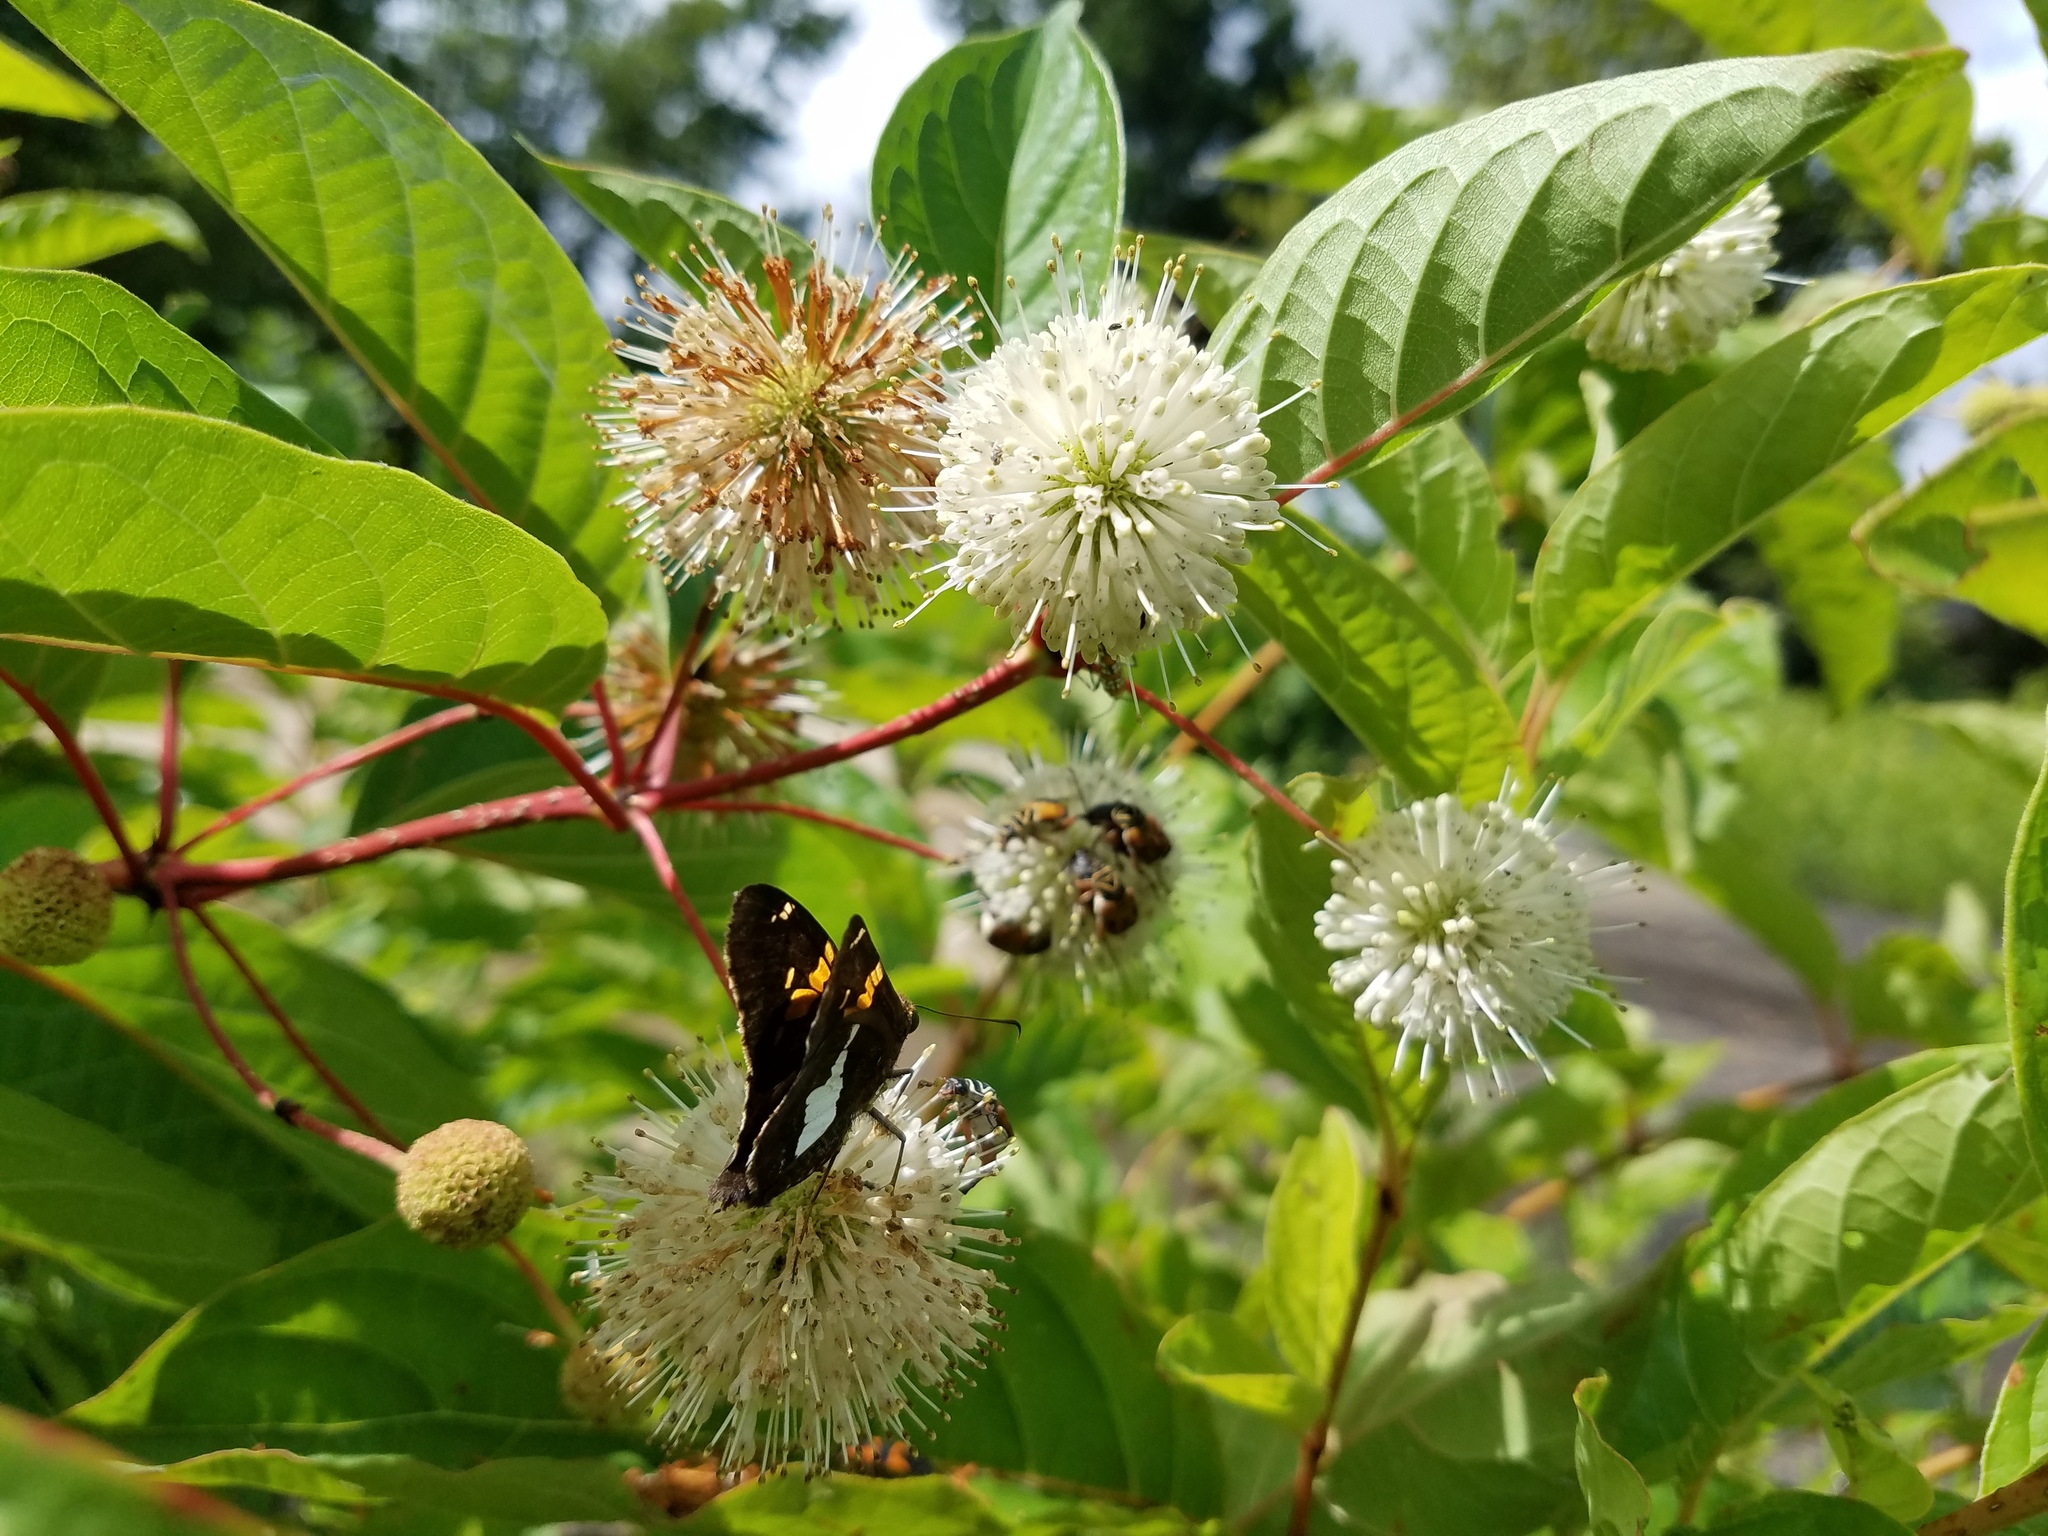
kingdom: Animalia
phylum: Arthropoda
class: Insecta
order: Lepidoptera
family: Hesperiidae
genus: Epargyreus
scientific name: Epargyreus clarus
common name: Silver-spotted skipper
